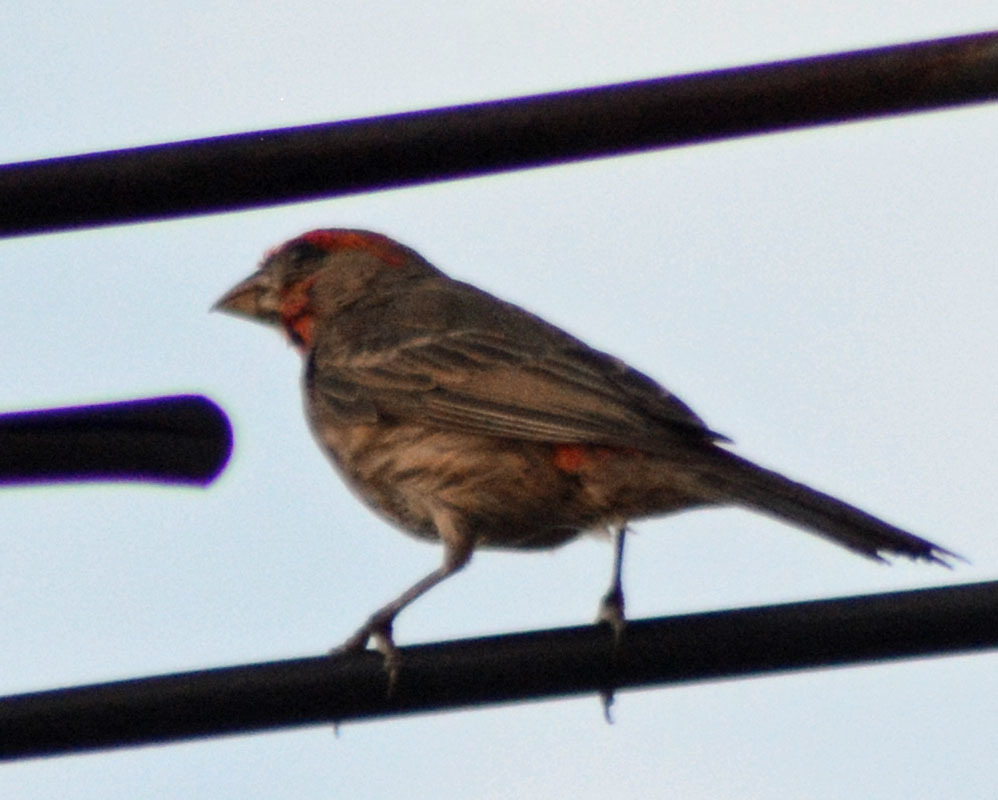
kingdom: Animalia
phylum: Chordata
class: Aves
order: Passeriformes
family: Fringillidae
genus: Haemorhous
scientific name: Haemorhous mexicanus
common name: House finch
